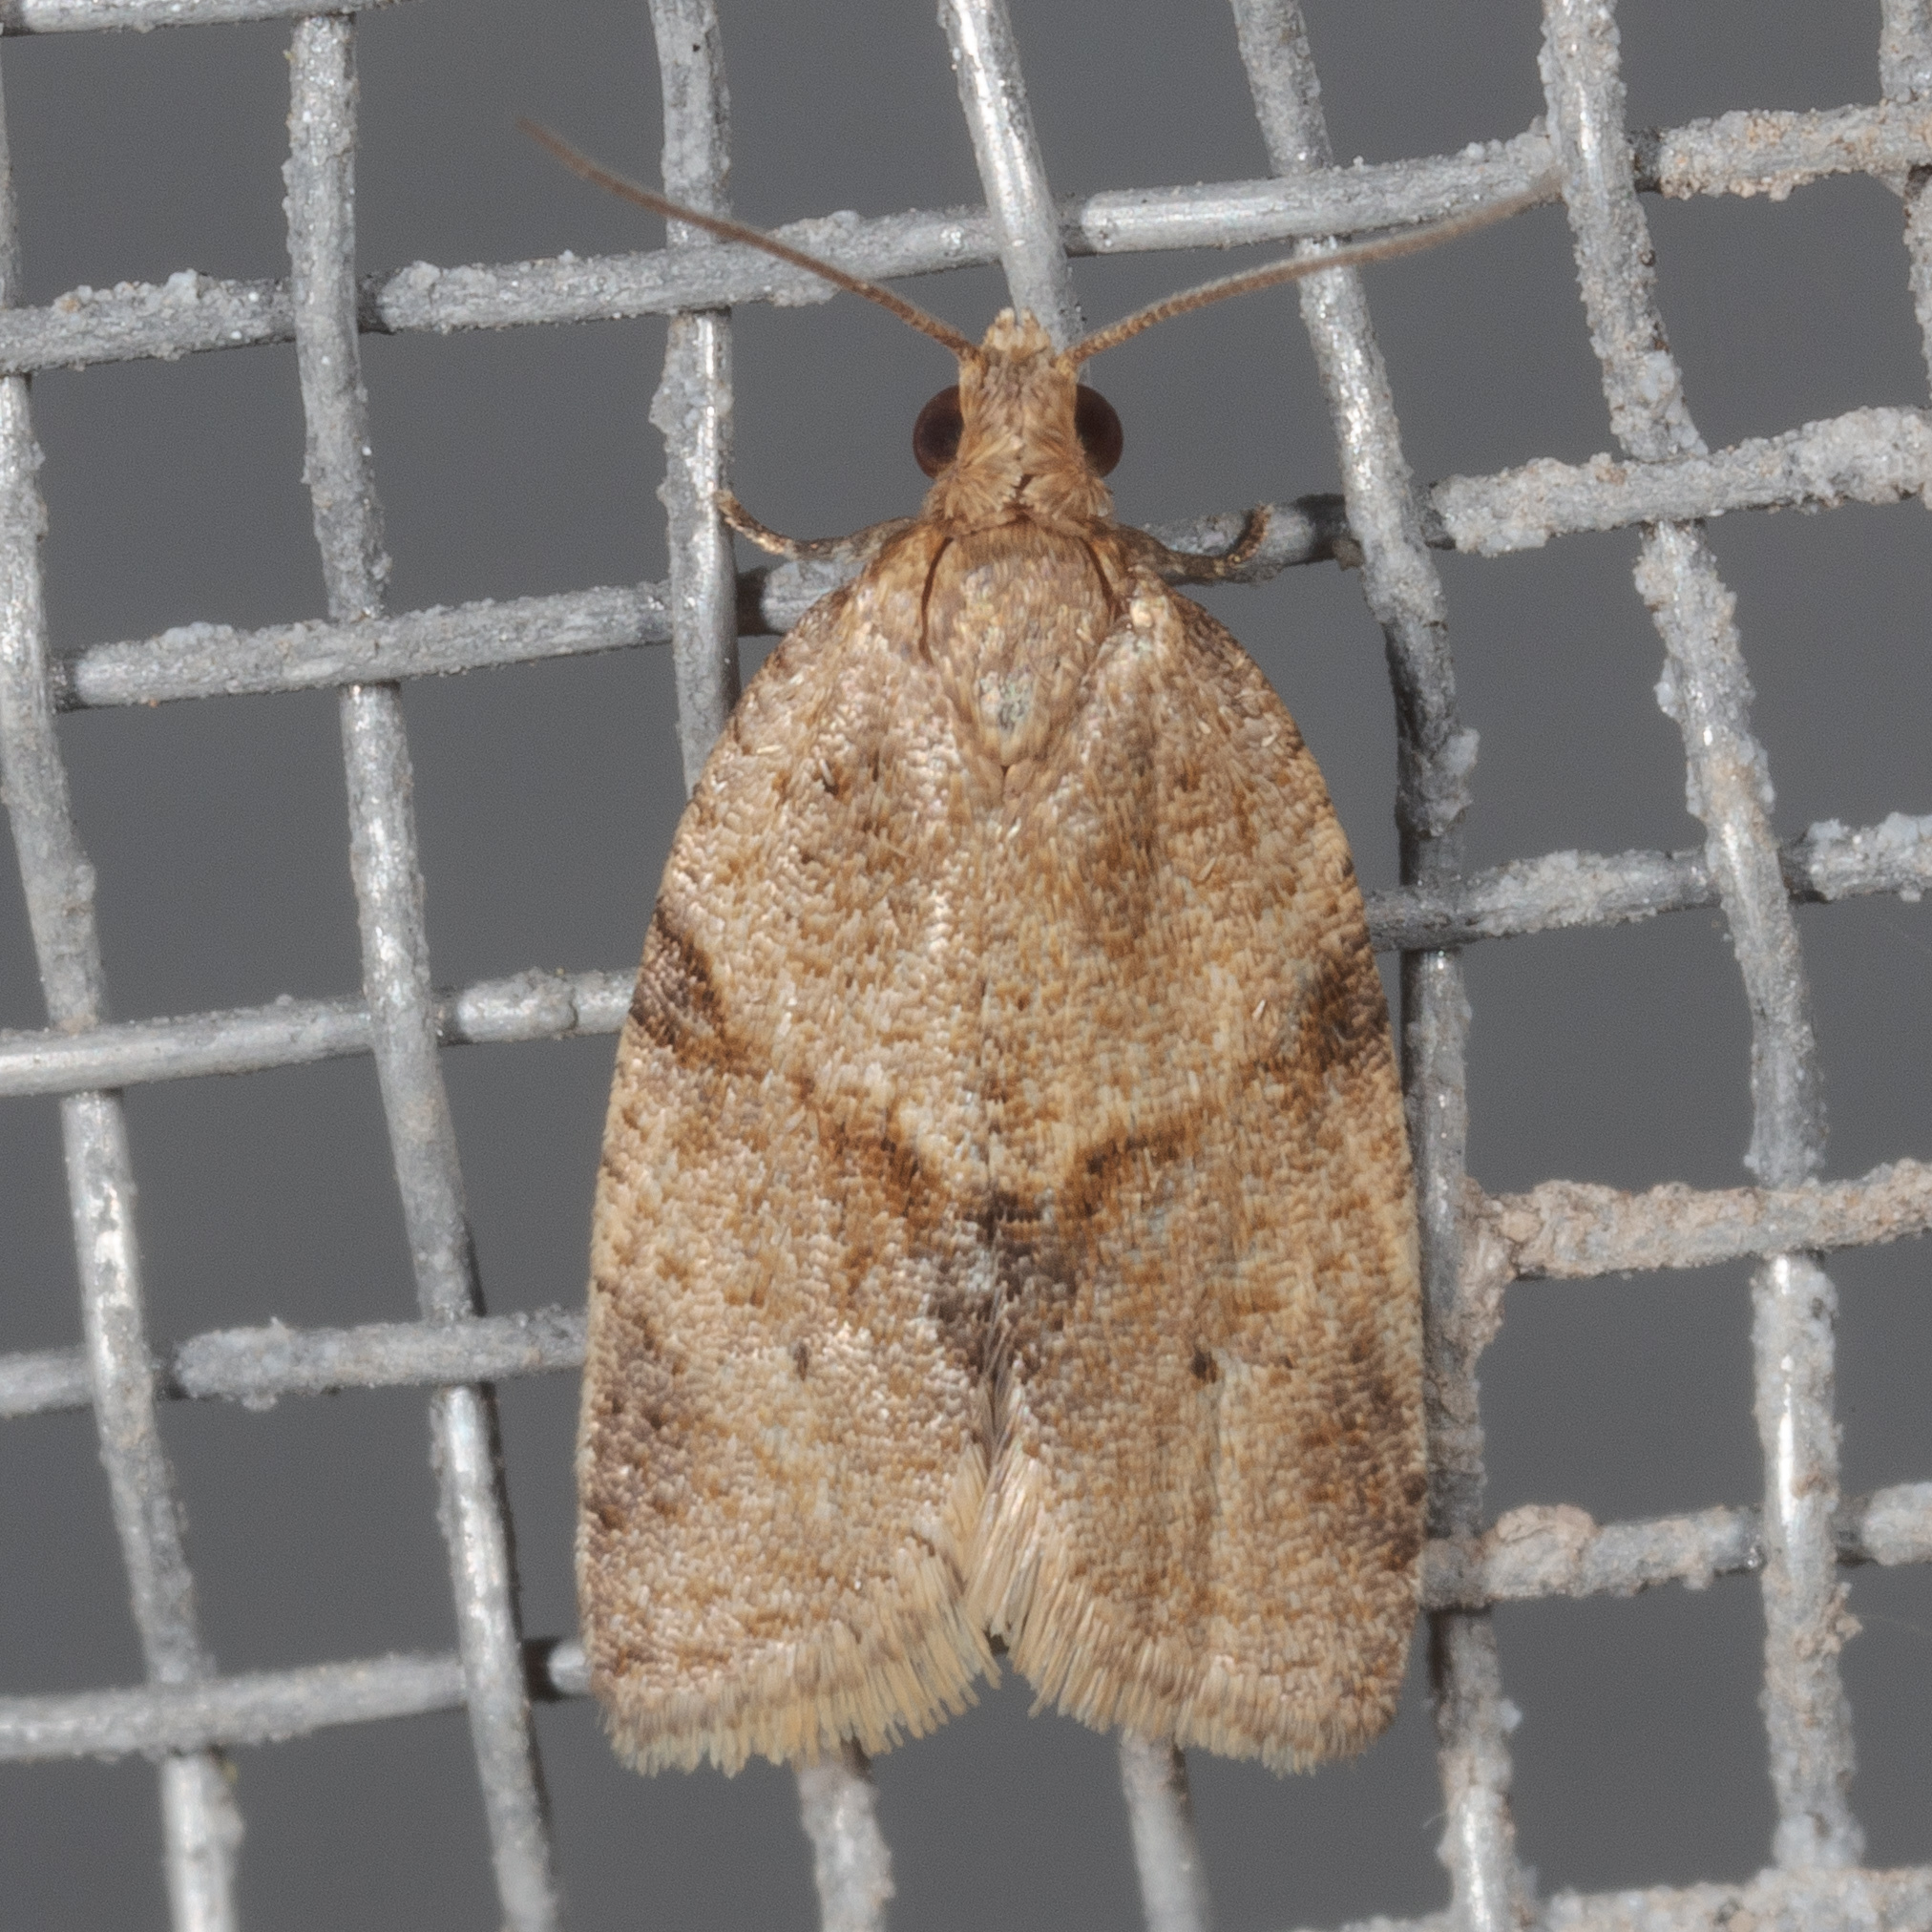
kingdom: Animalia
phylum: Arthropoda
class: Insecta
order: Lepidoptera
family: Tortricidae
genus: Clepsis
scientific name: Clepsis peritana
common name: Garden tortrix
